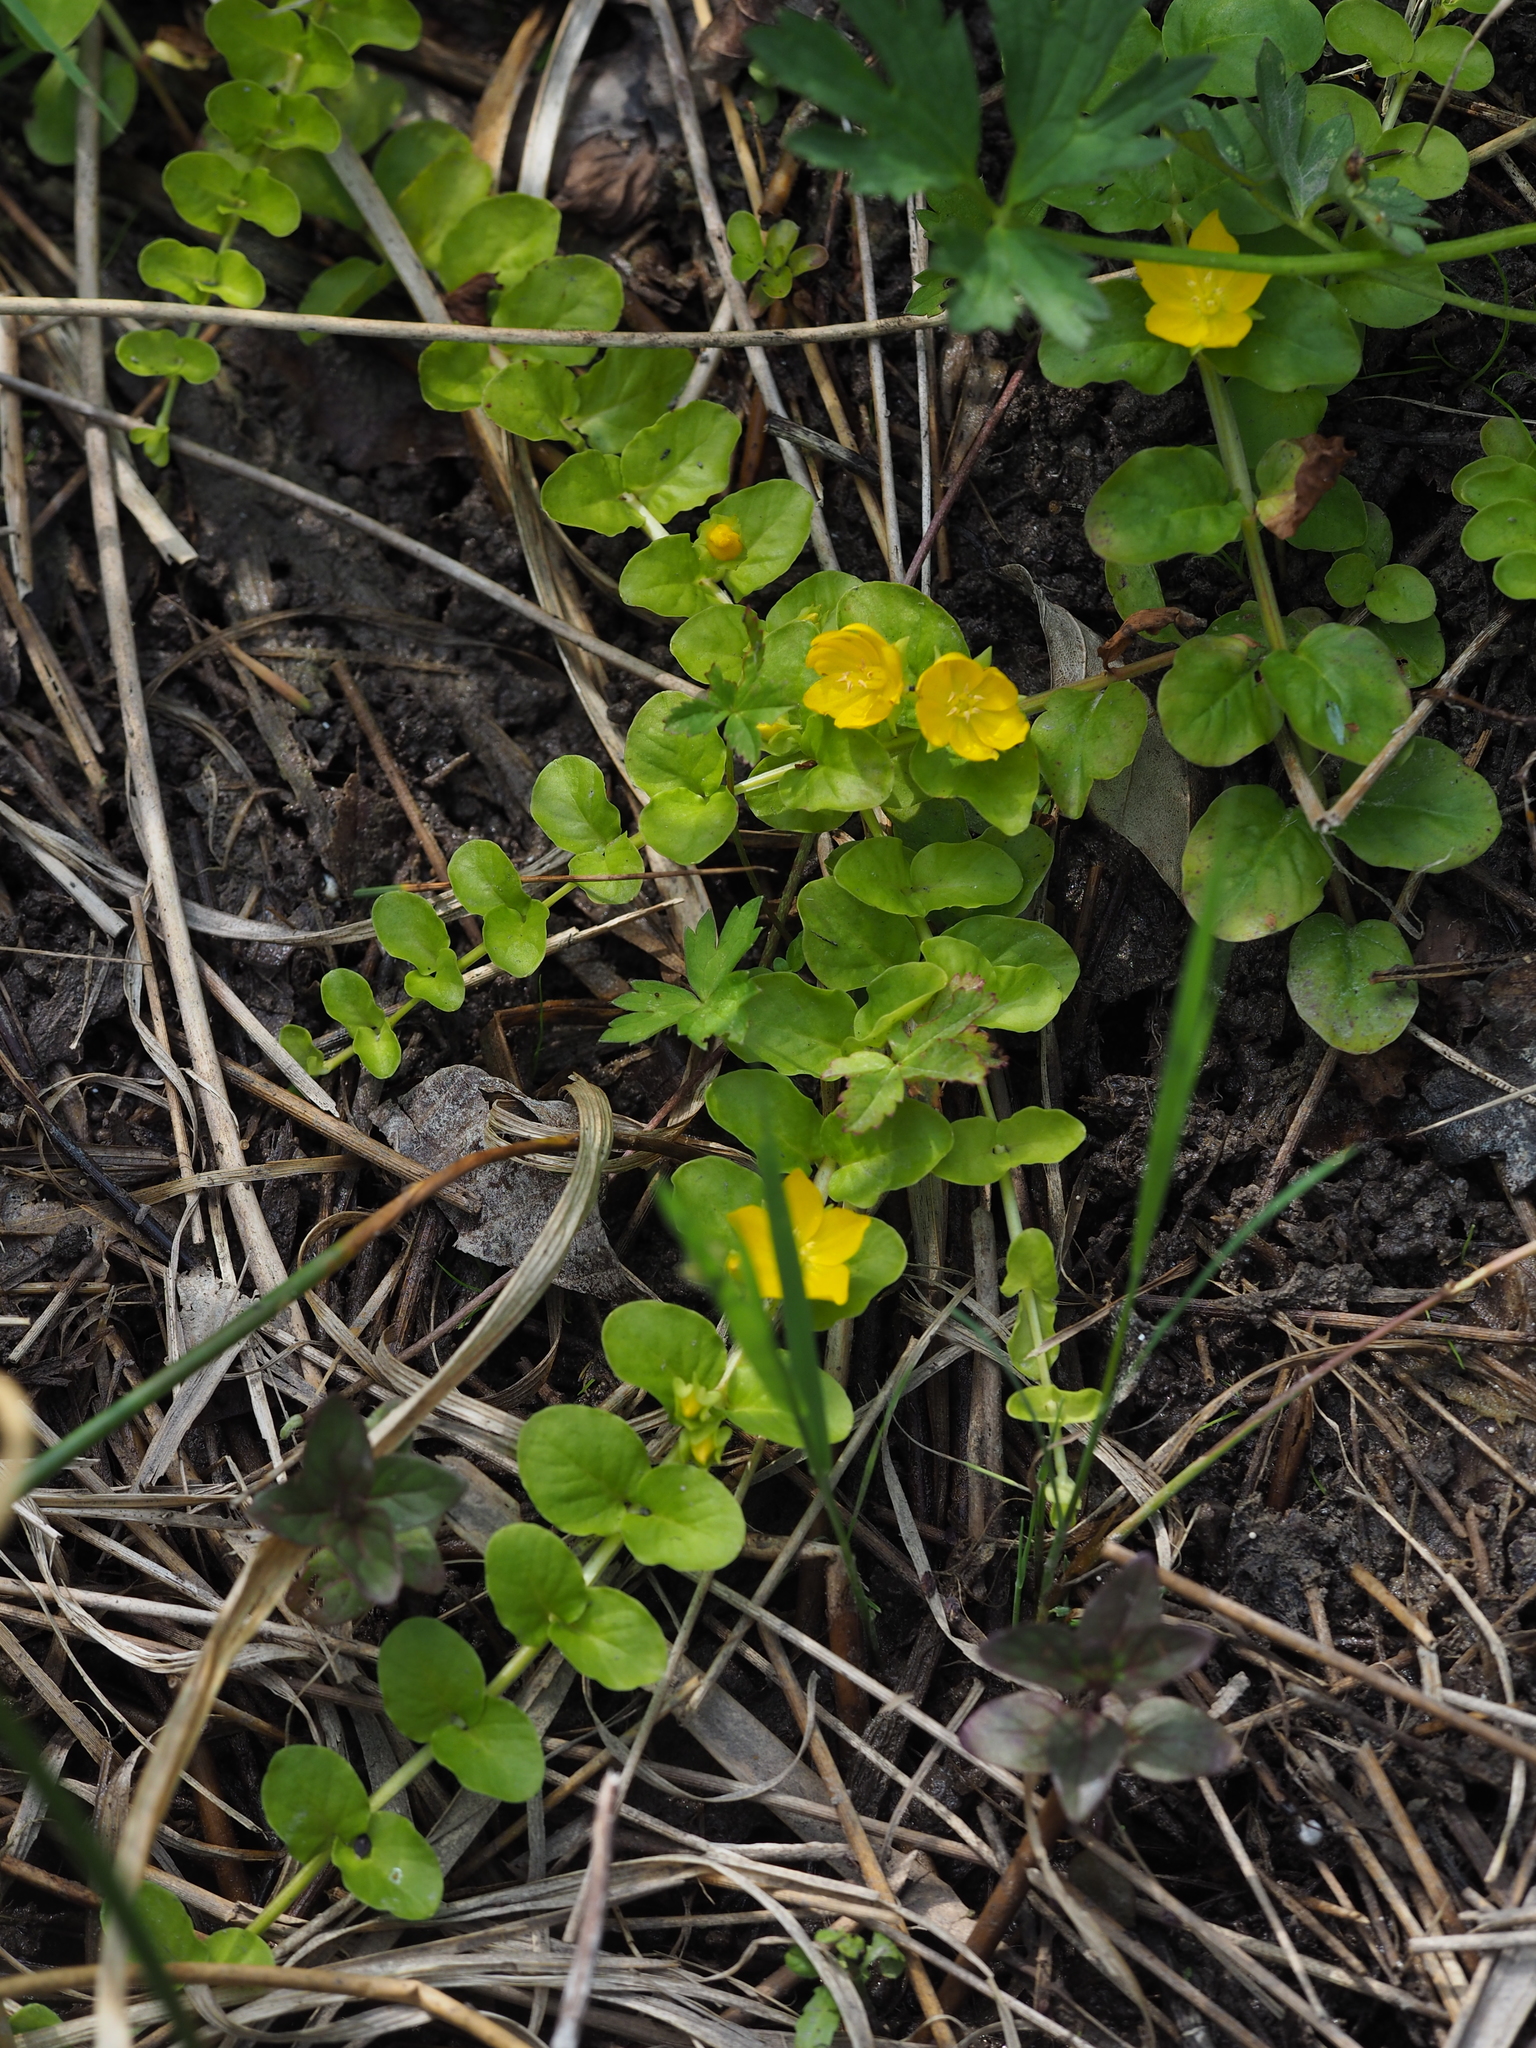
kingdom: Plantae
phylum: Tracheophyta
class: Magnoliopsida
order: Ericales
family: Primulaceae
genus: Lysimachia
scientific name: Lysimachia nummularia
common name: Moneywort
